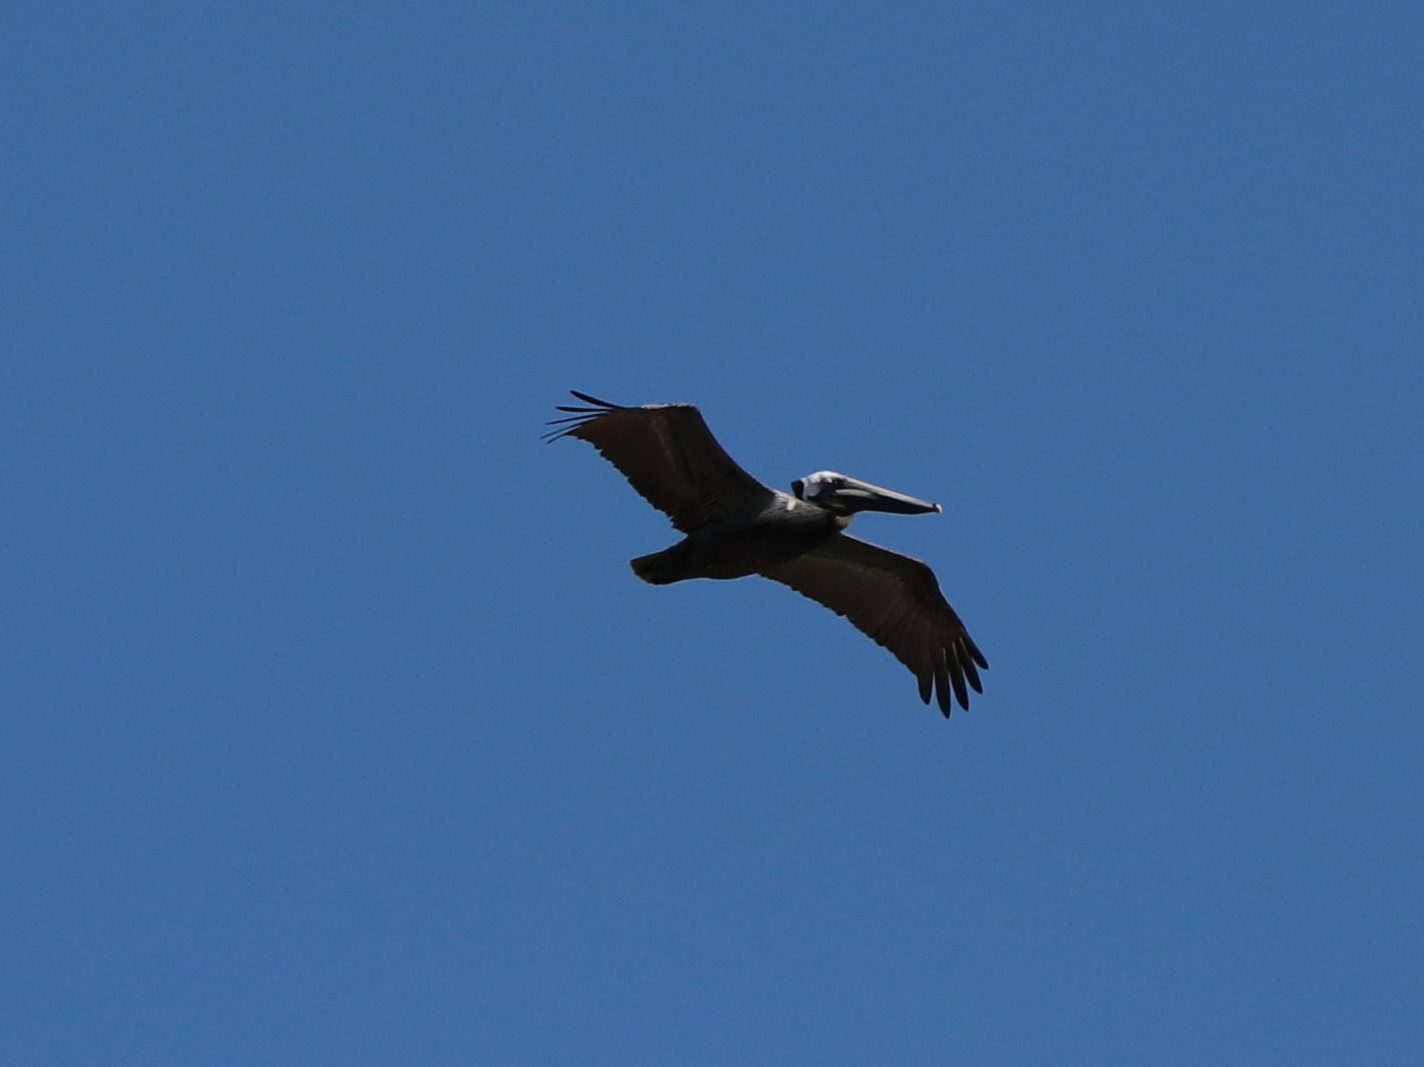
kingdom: Animalia
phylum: Chordata
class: Aves
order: Pelecaniformes
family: Pelecanidae
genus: Pelecanus
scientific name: Pelecanus occidentalis
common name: Brown pelican
